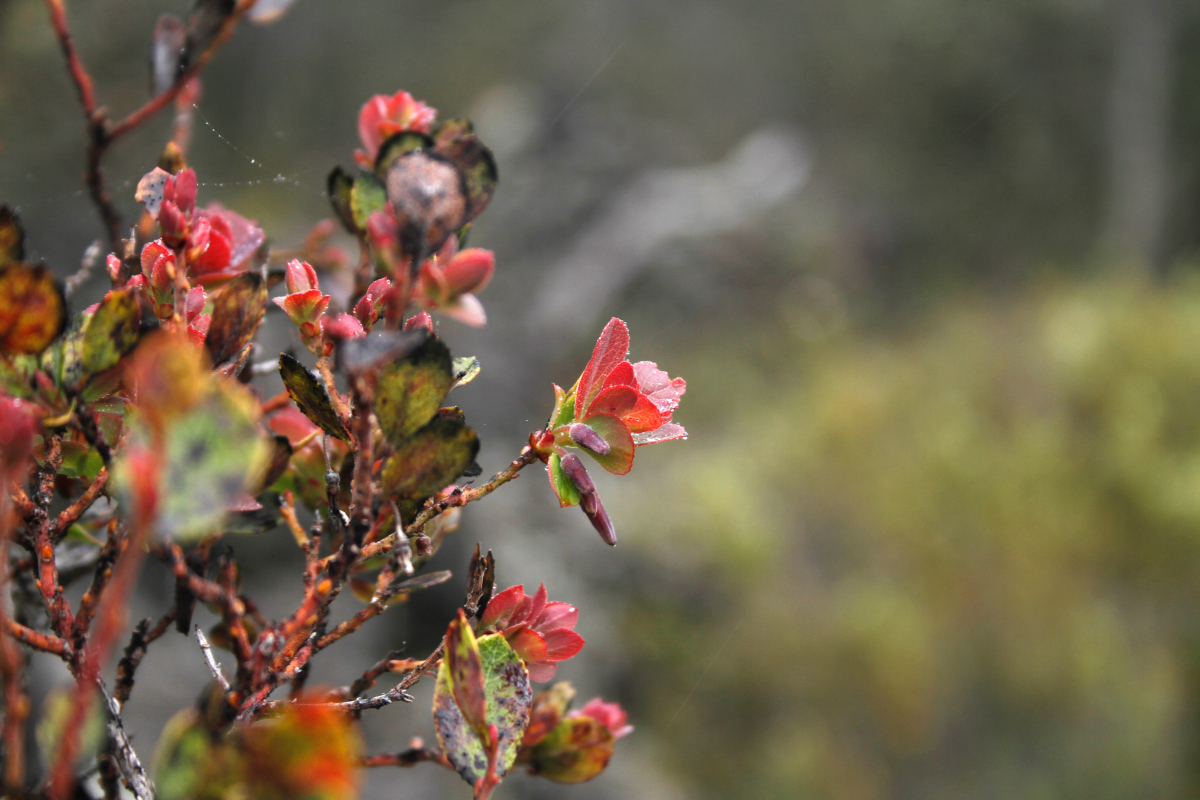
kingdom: Plantae
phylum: Tracheophyta
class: Magnoliopsida
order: Ericales
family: Ericaceae
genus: Vaccinium
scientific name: Vaccinium reticulatum
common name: Ohelo
